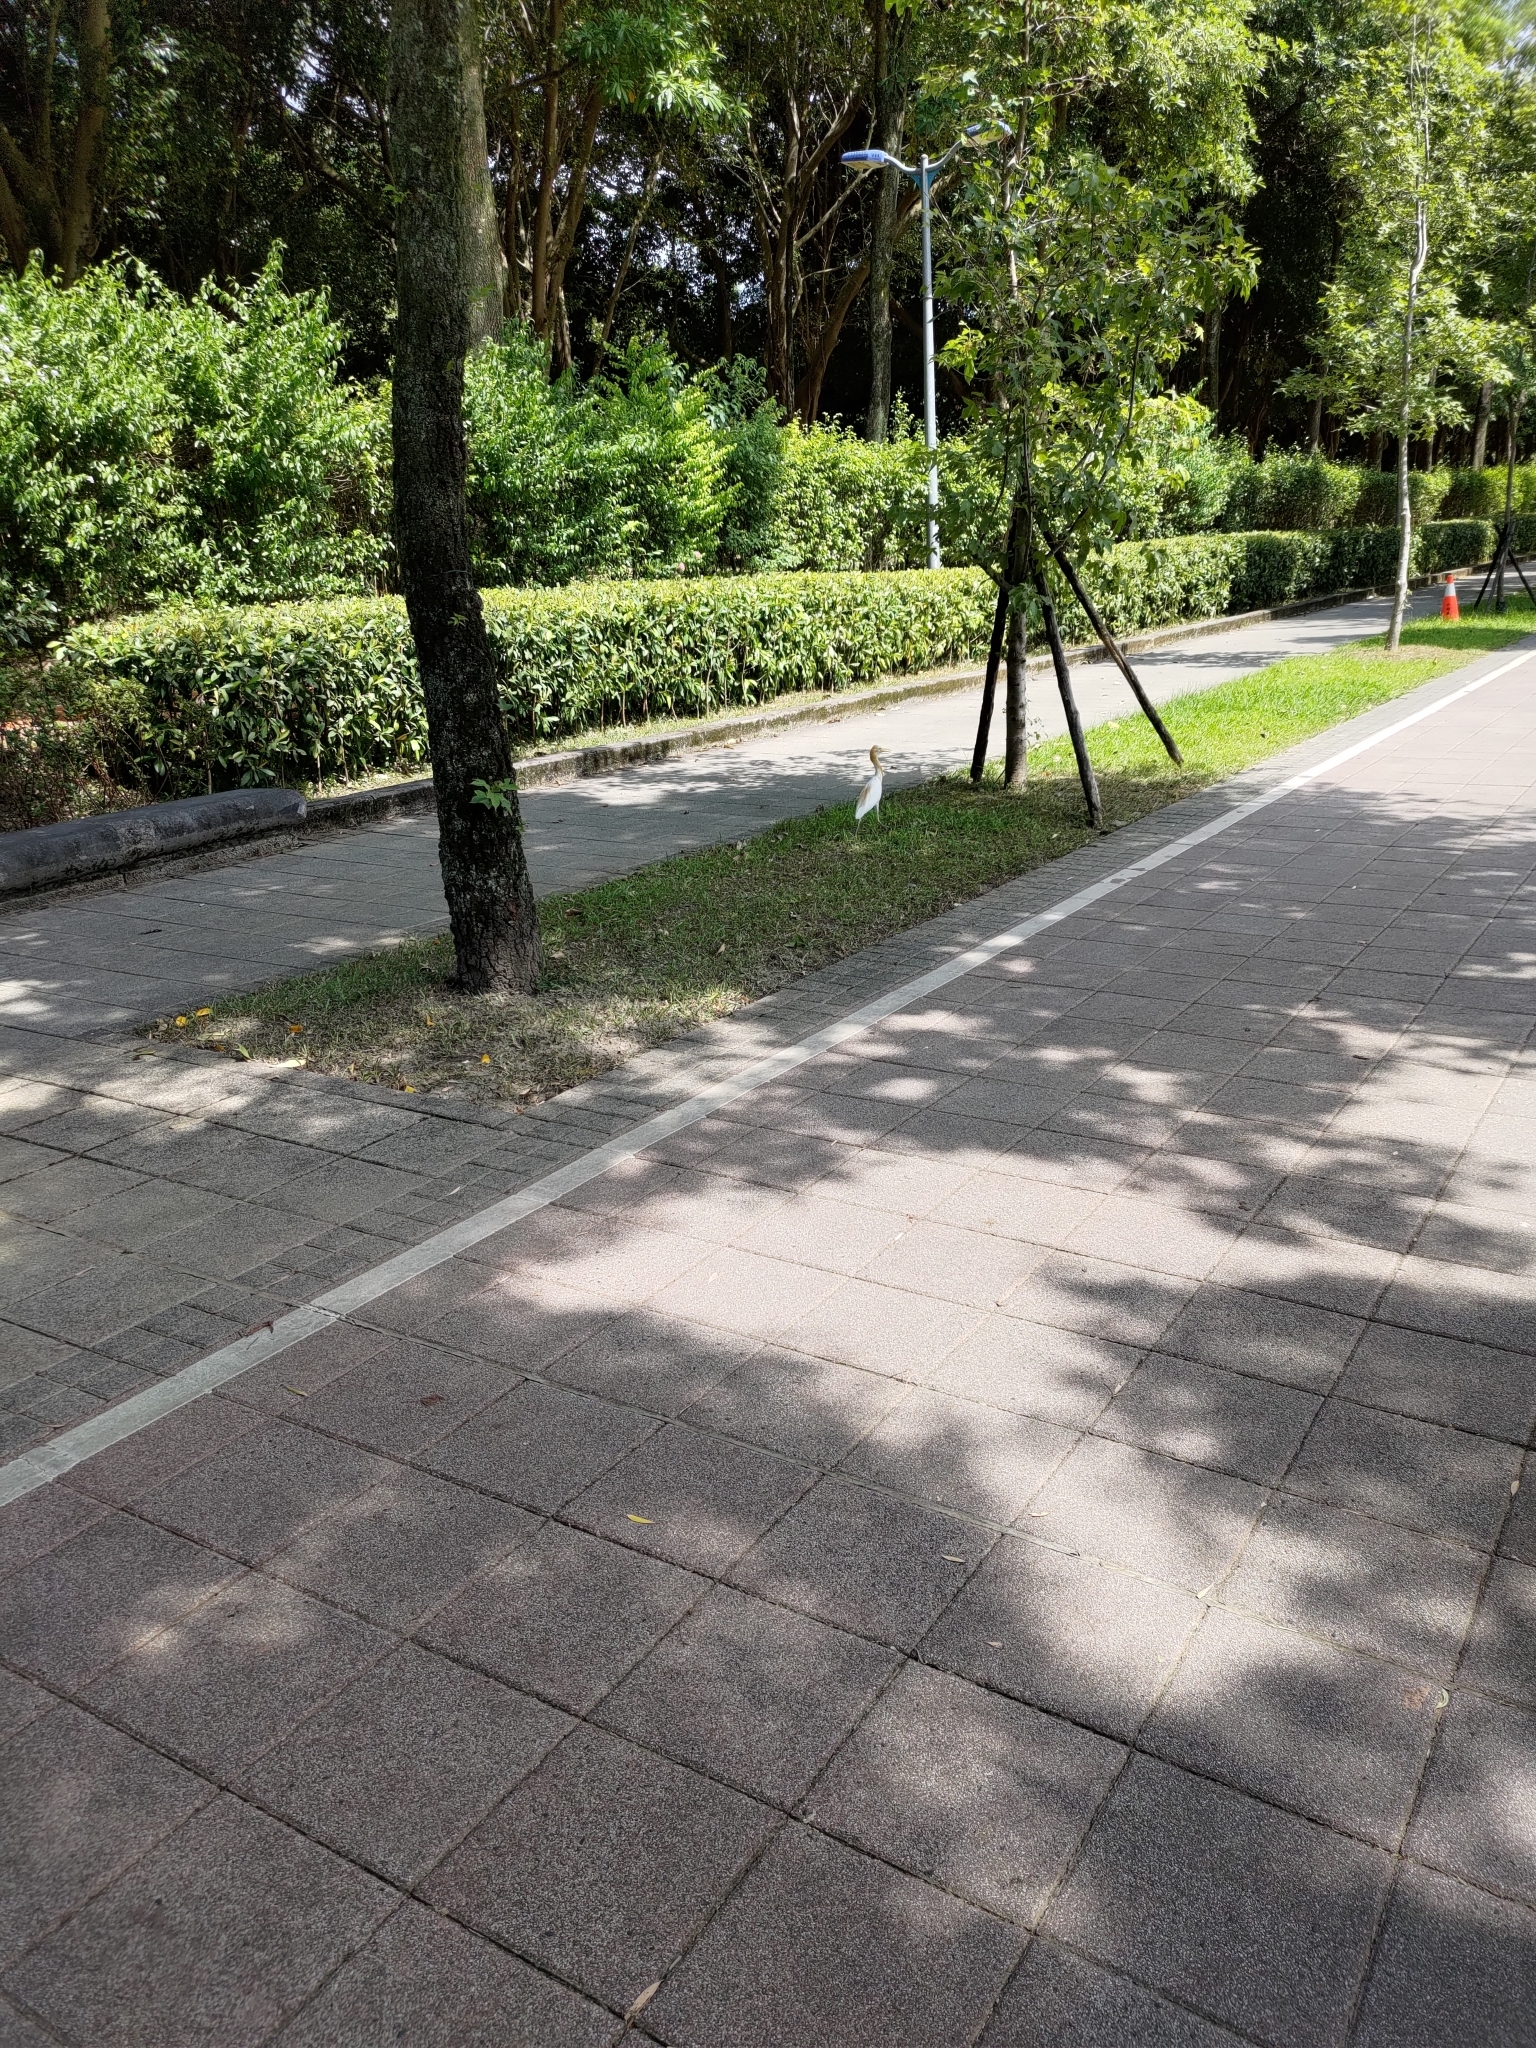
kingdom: Animalia
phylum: Chordata
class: Aves
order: Pelecaniformes
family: Ardeidae
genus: Bubulcus
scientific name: Bubulcus coromandus
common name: Eastern cattle egret
